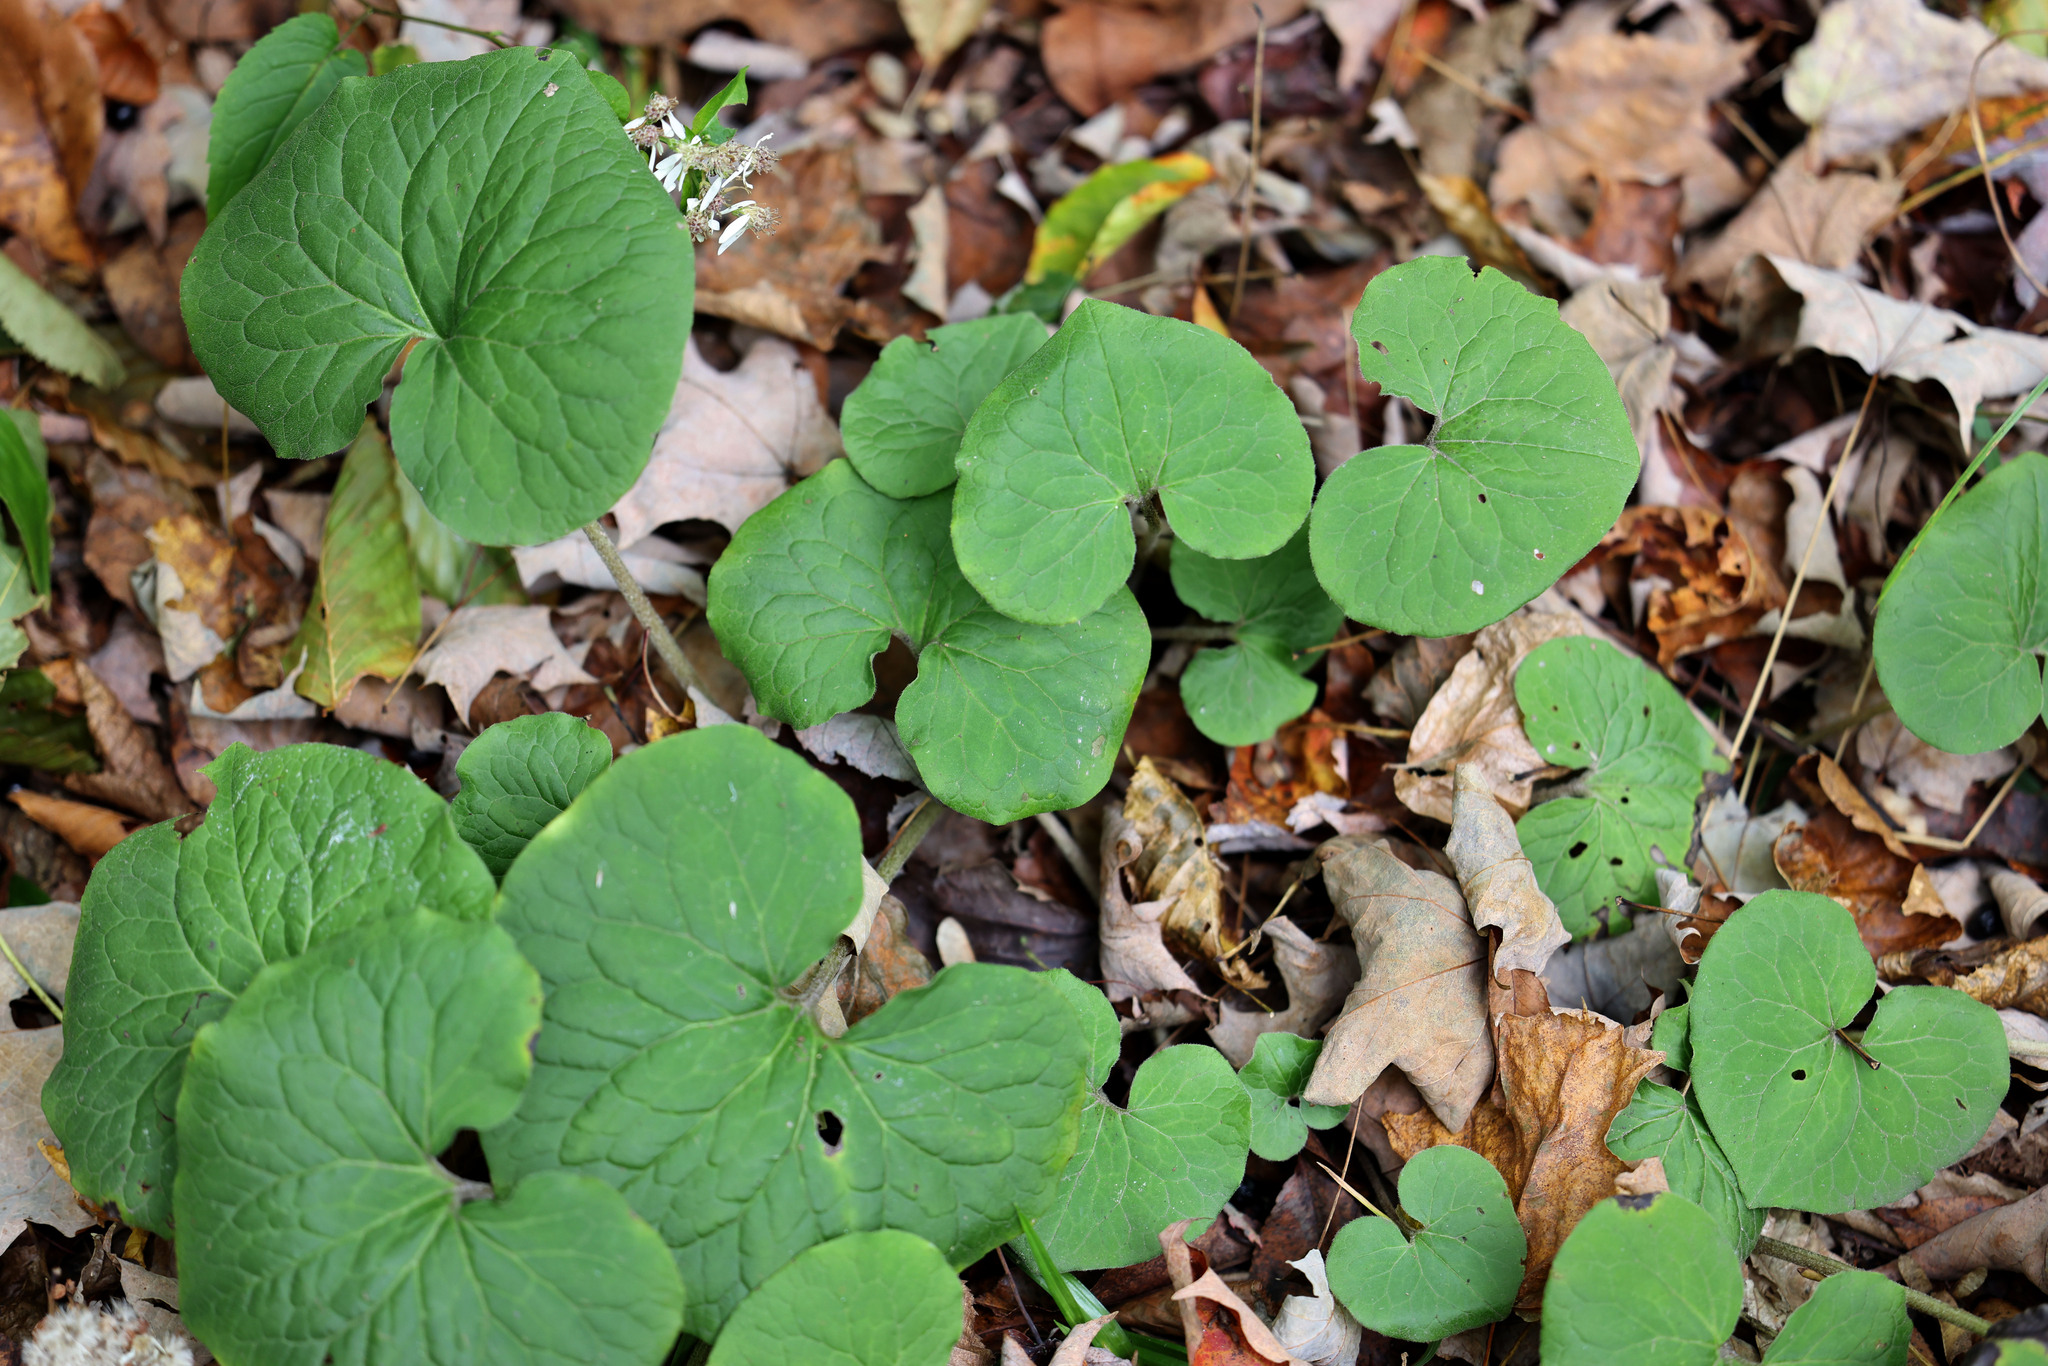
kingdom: Plantae
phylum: Tracheophyta
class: Magnoliopsida
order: Piperales
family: Aristolochiaceae
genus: Asarum
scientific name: Asarum canadense
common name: Wild ginger
